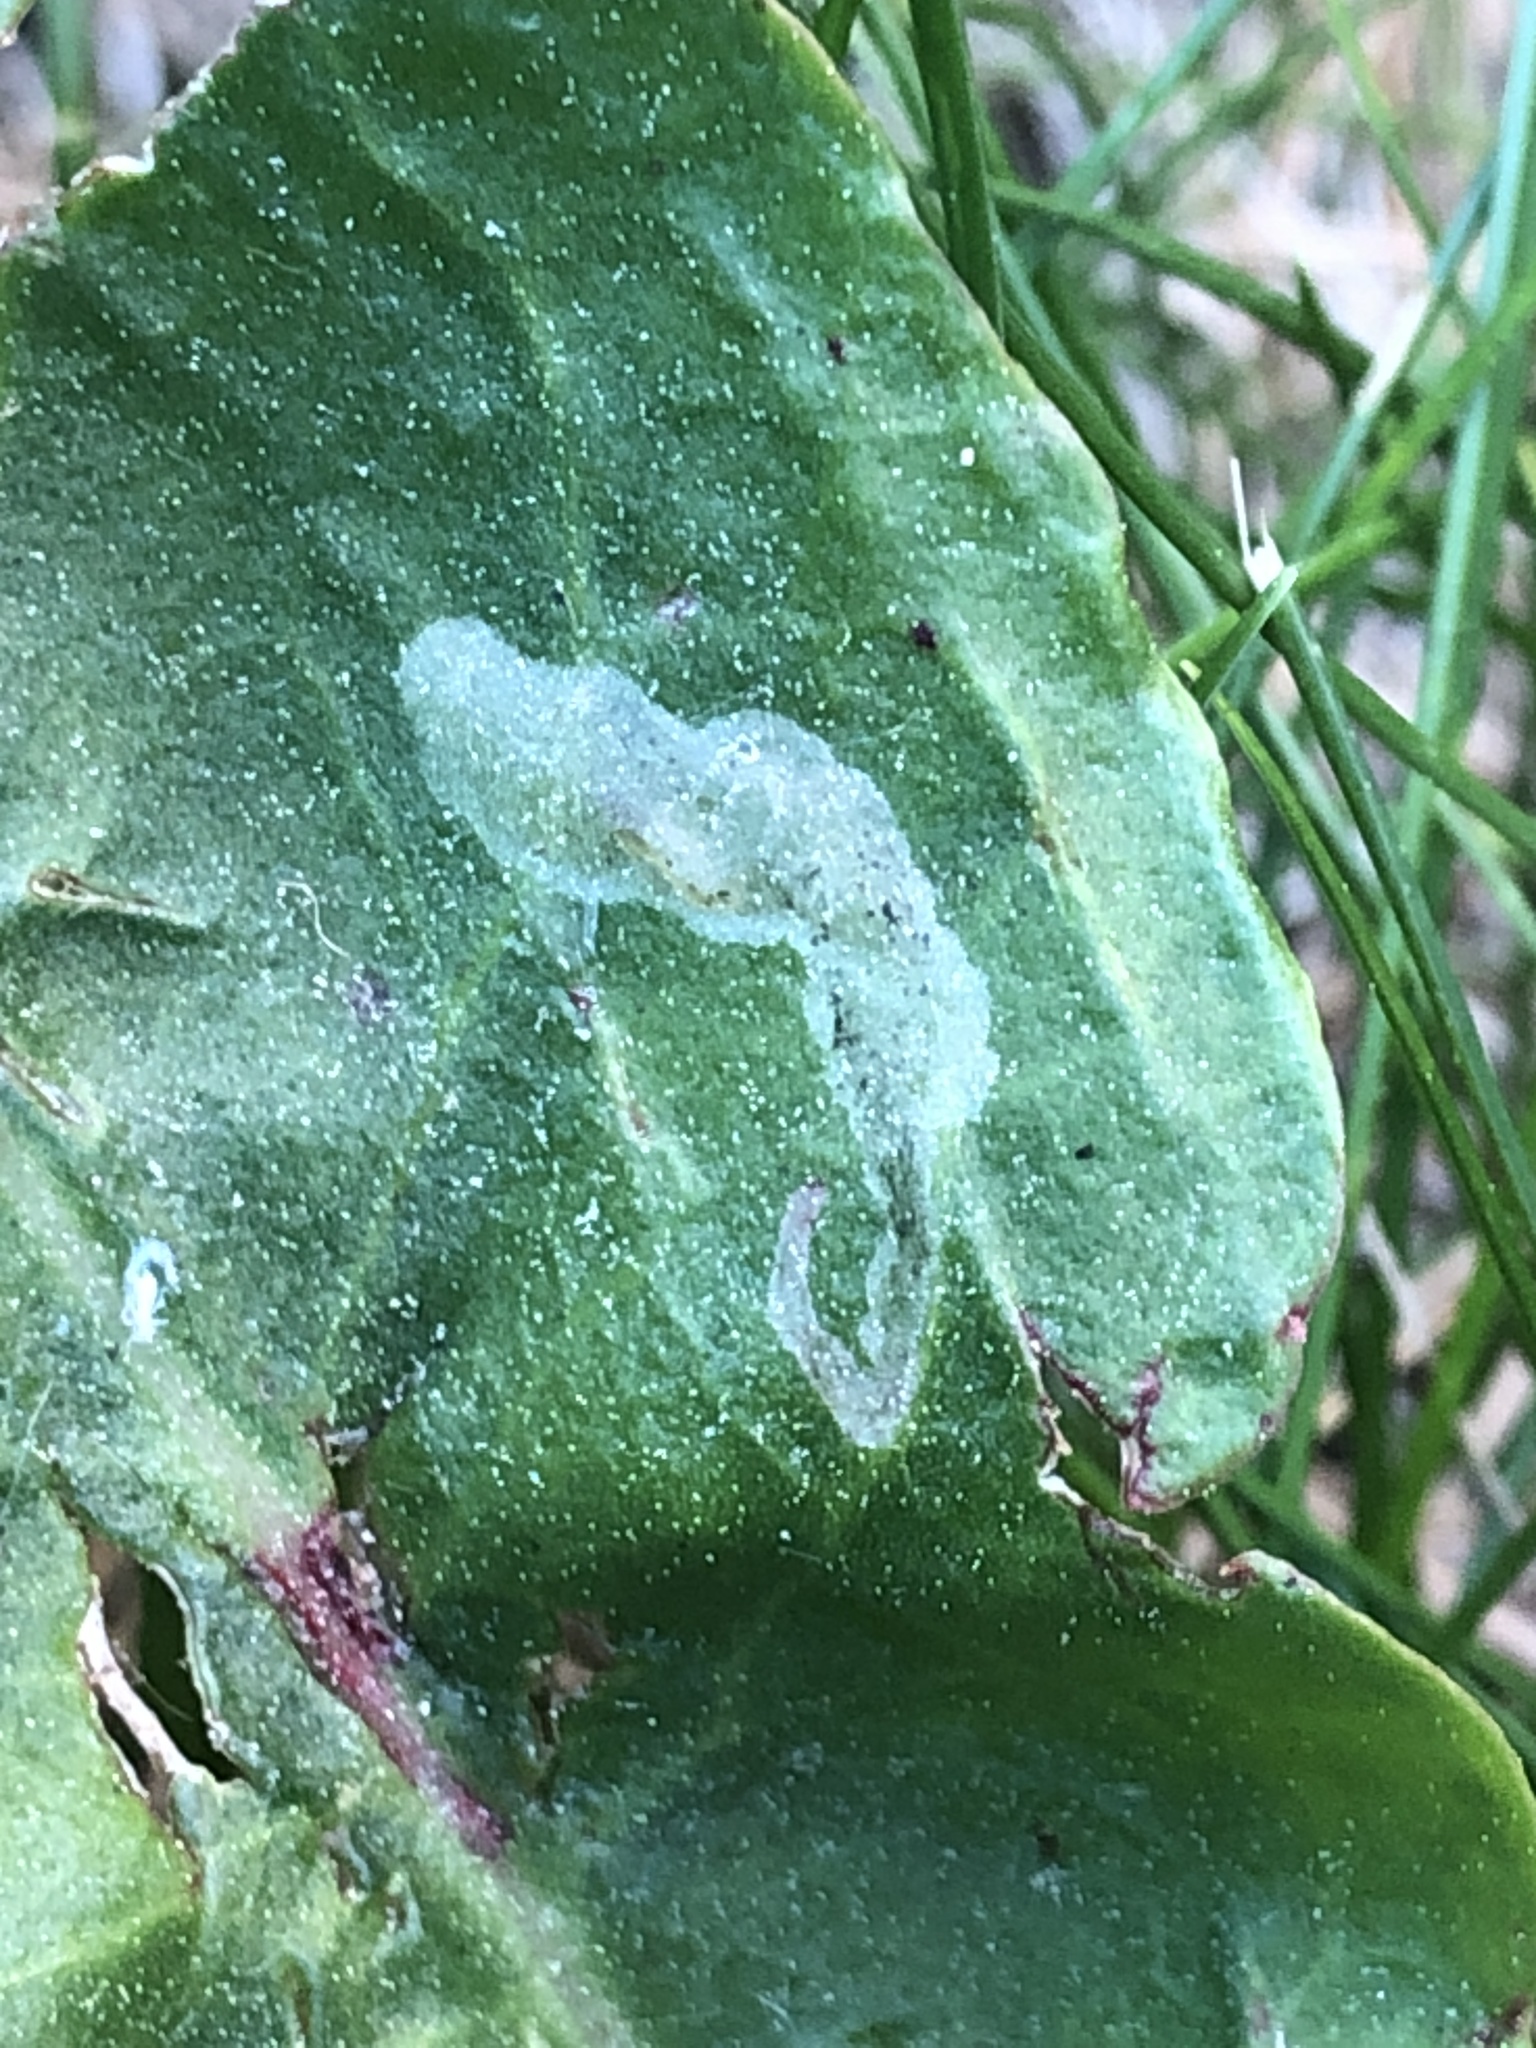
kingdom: Animalia
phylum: Arthropoda
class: Insecta
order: Diptera
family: Anthomyiidae
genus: Pegomya
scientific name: Pegomya solennis
